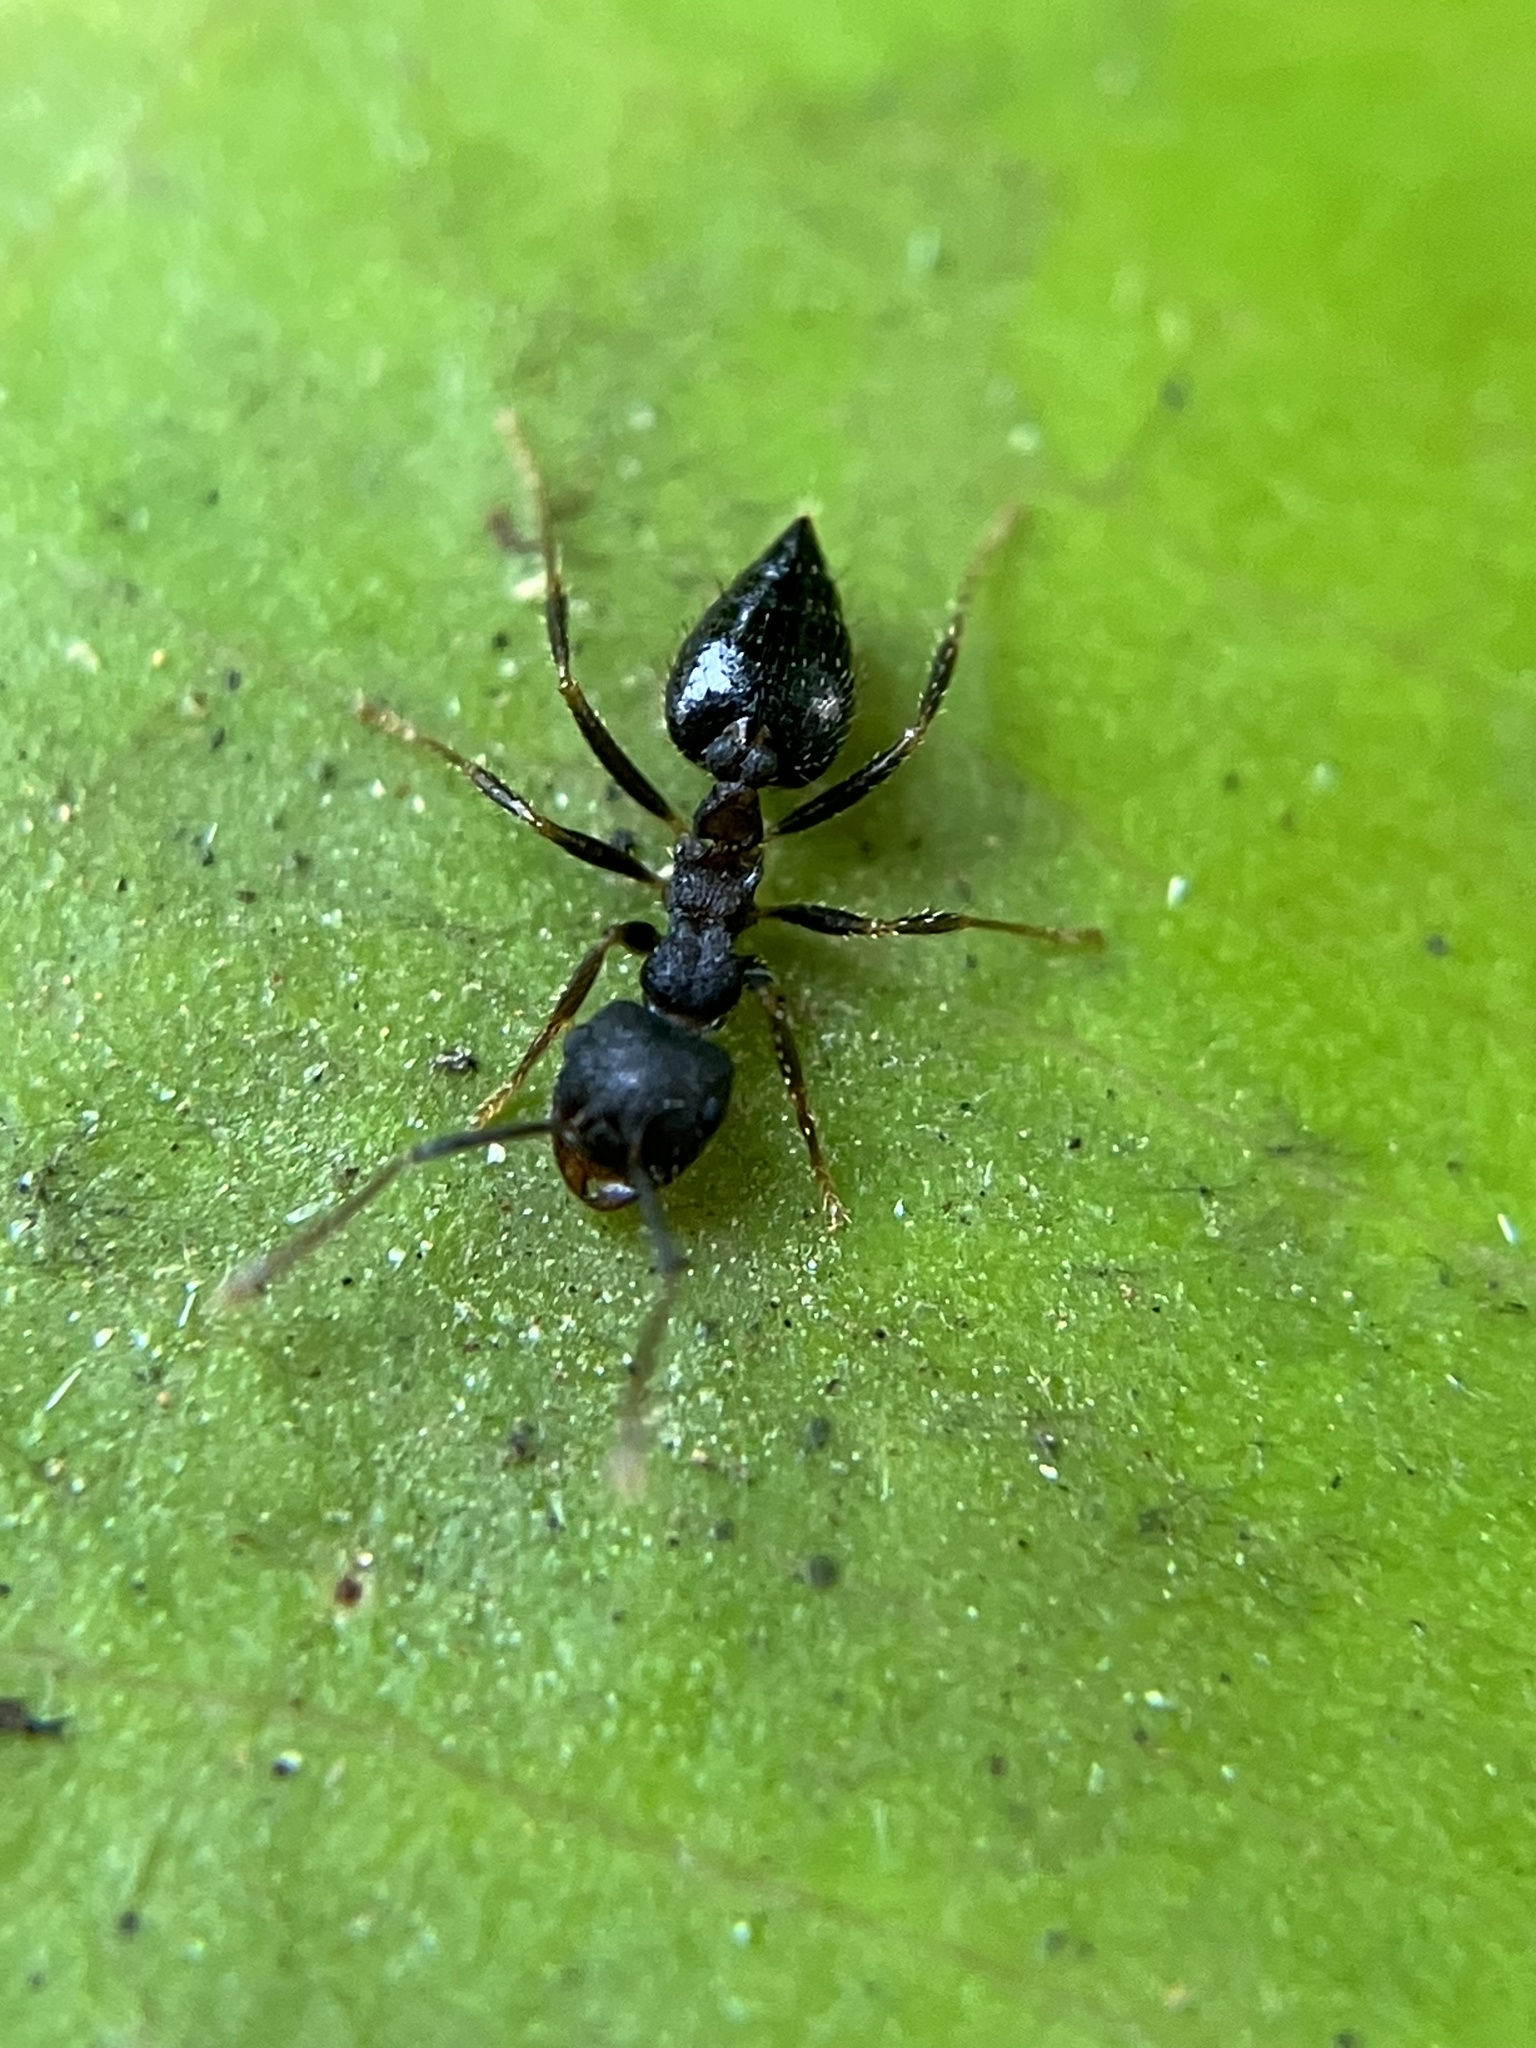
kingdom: Animalia
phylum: Arthropoda
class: Insecta
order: Hymenoptera
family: Formicidae
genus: Crematogaster
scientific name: Crematogaster rothneyi
